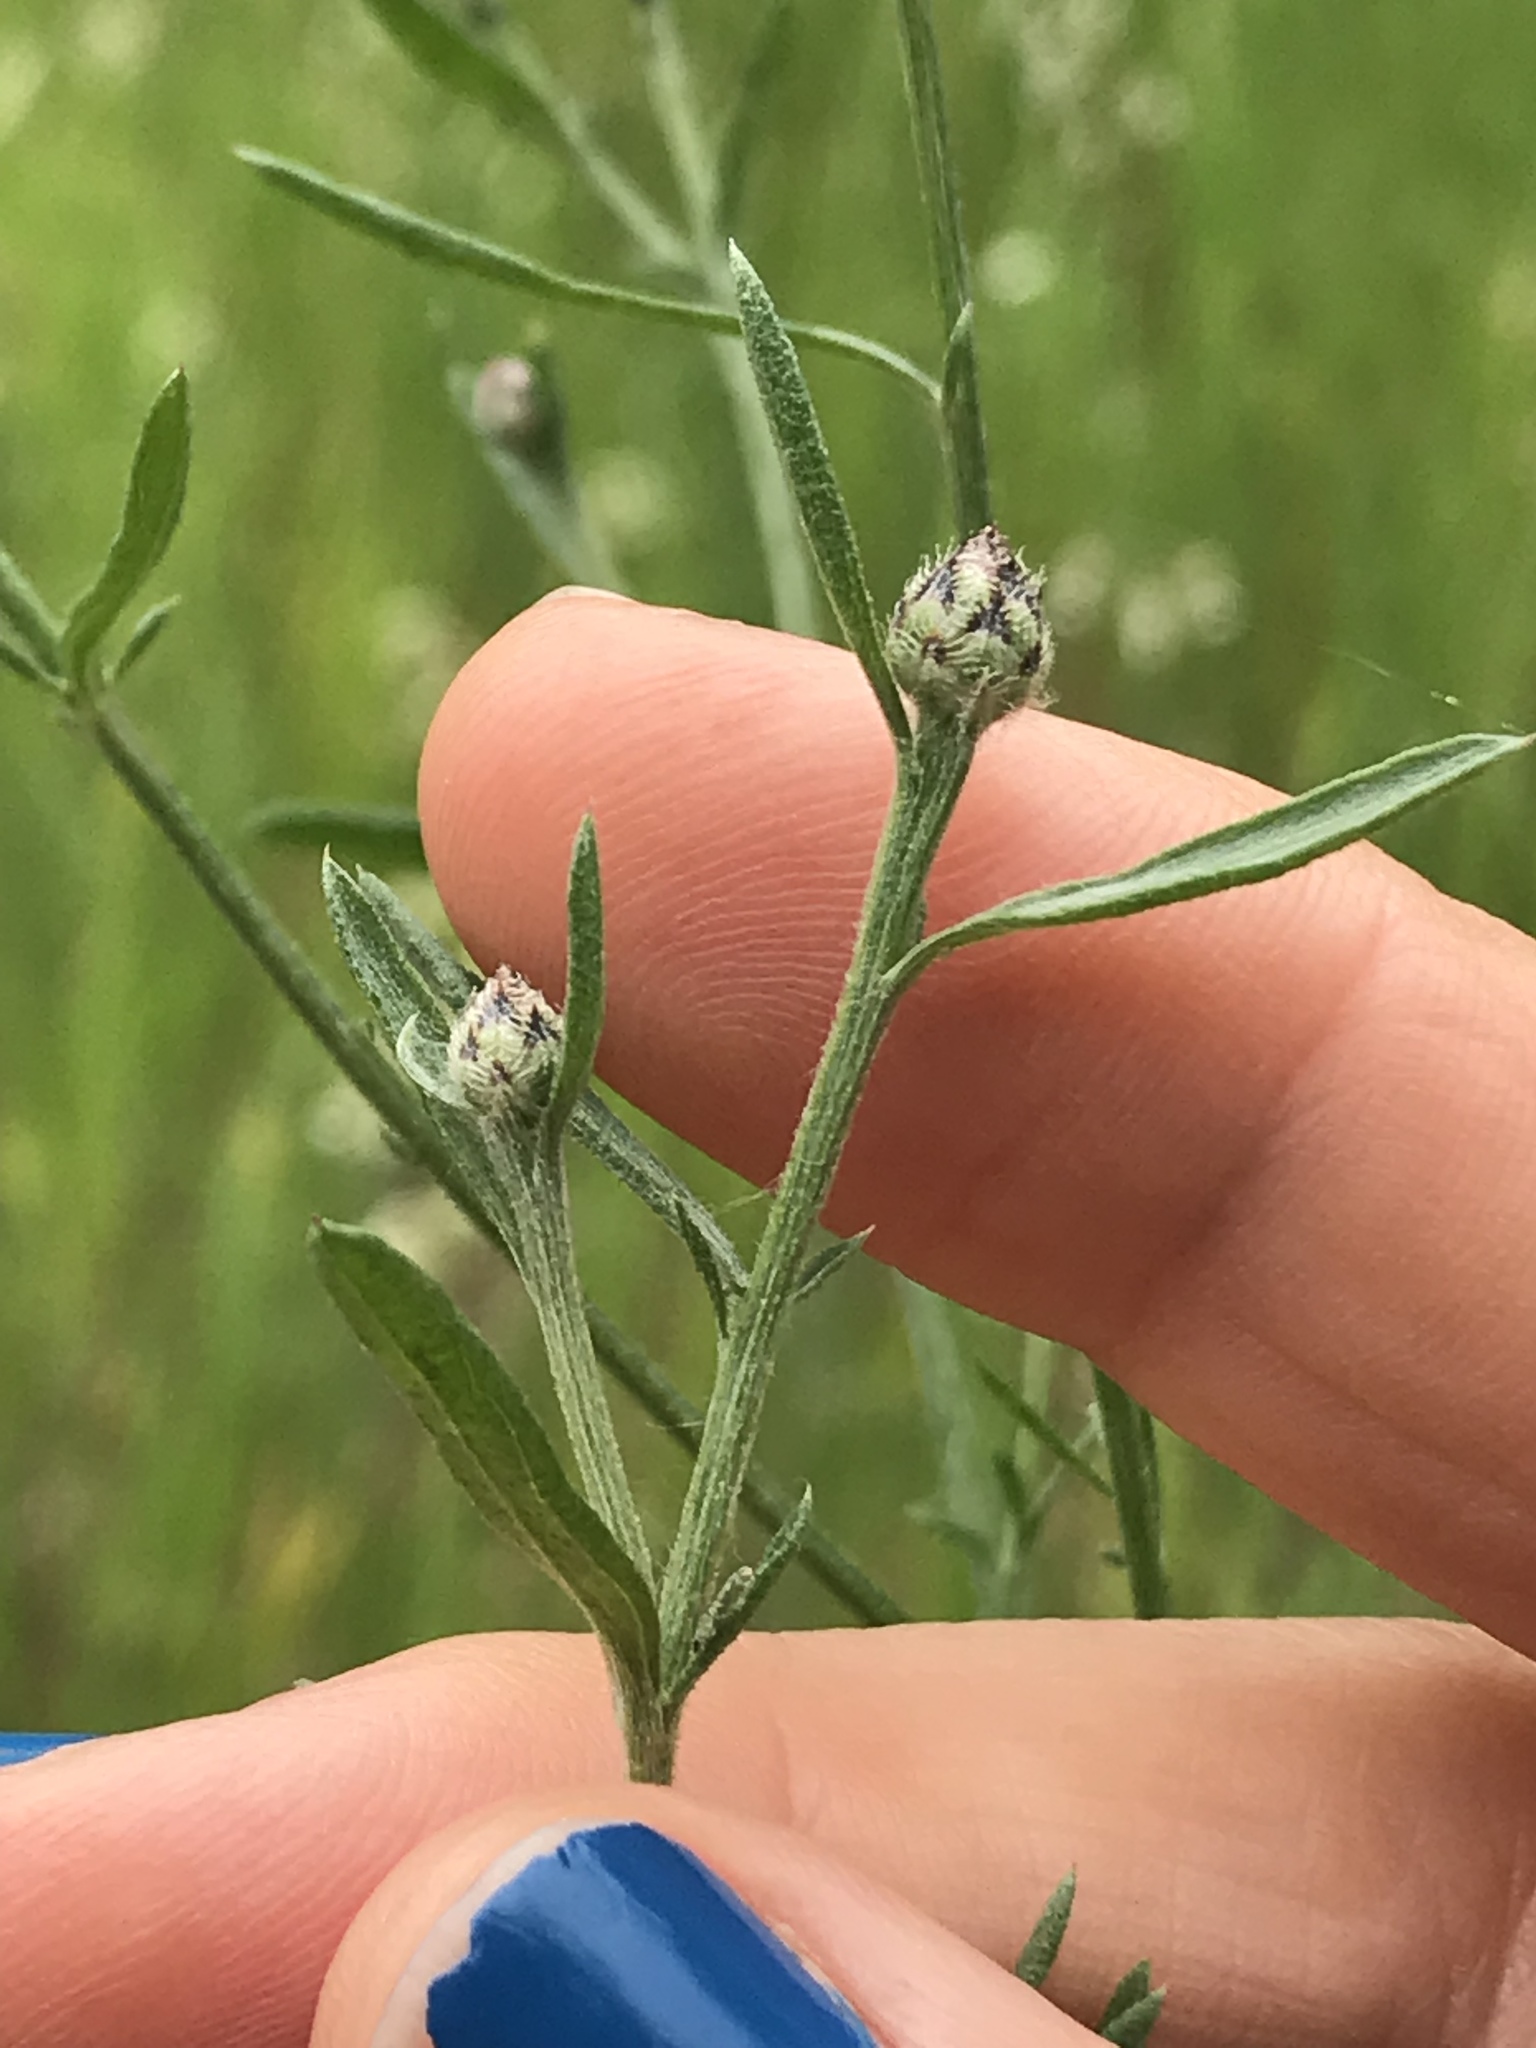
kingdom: Plantae
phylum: Tracheophyta
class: Magnoliopsida
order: Asterales
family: Asteraceae
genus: Centaurea
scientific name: Centaurea stoebe
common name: Spotted knapweed
